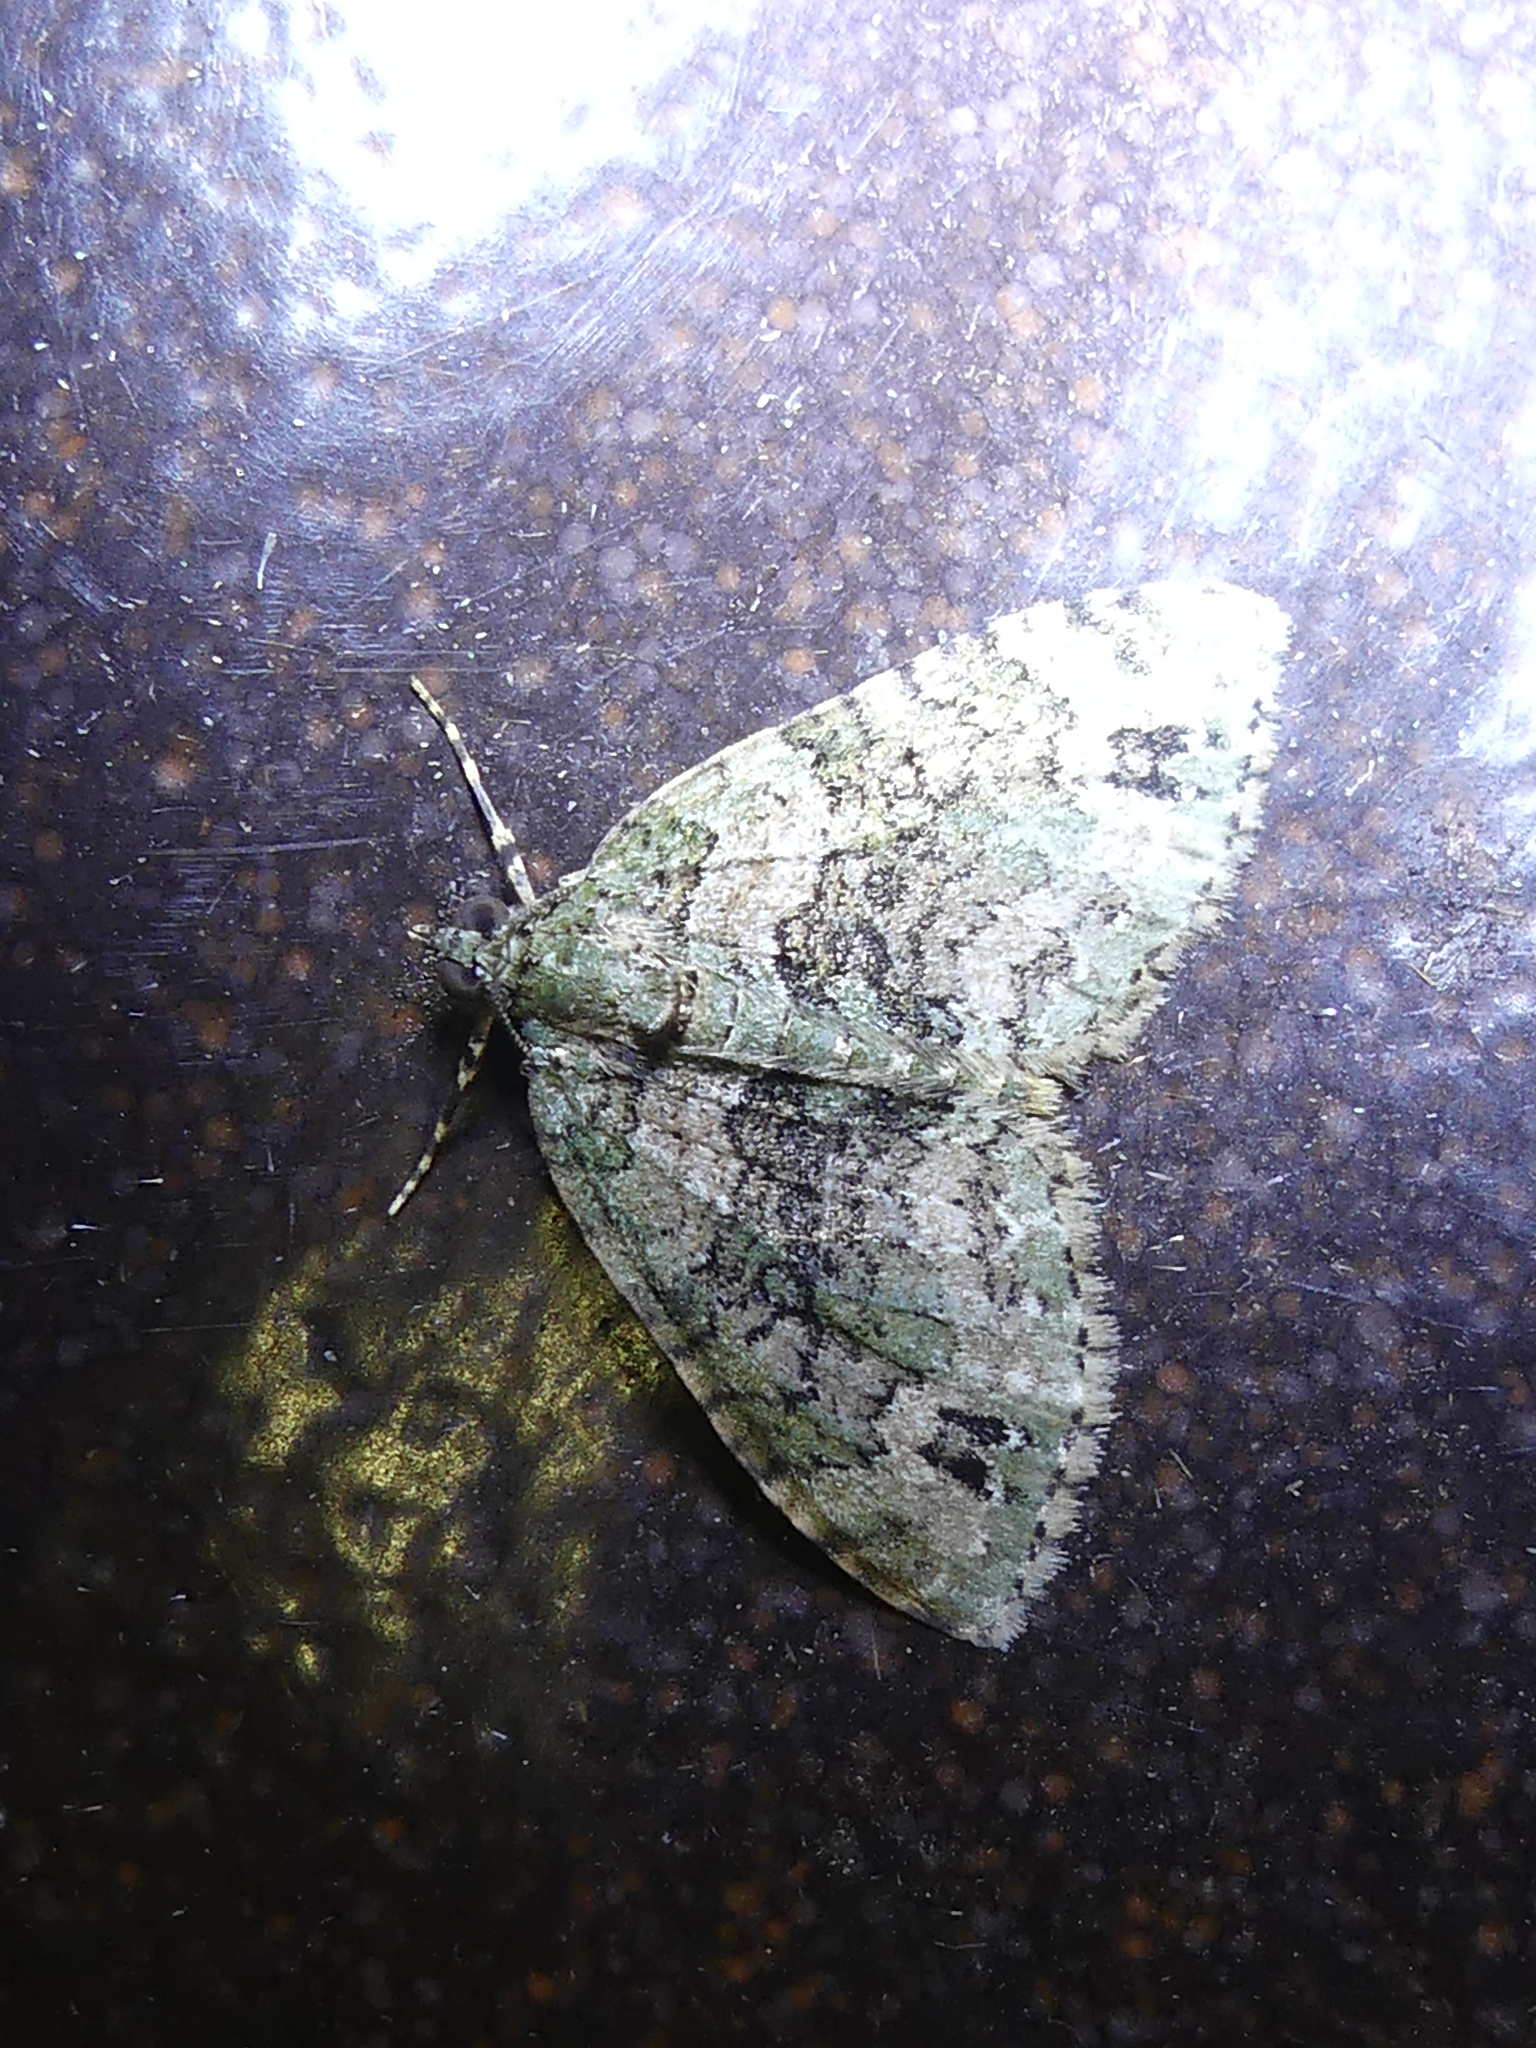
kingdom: Animalia
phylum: Arthropoda
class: Insecta
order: Lepidoptera
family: Geometridae
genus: Hammaptera
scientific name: Hammaptera parinotata
